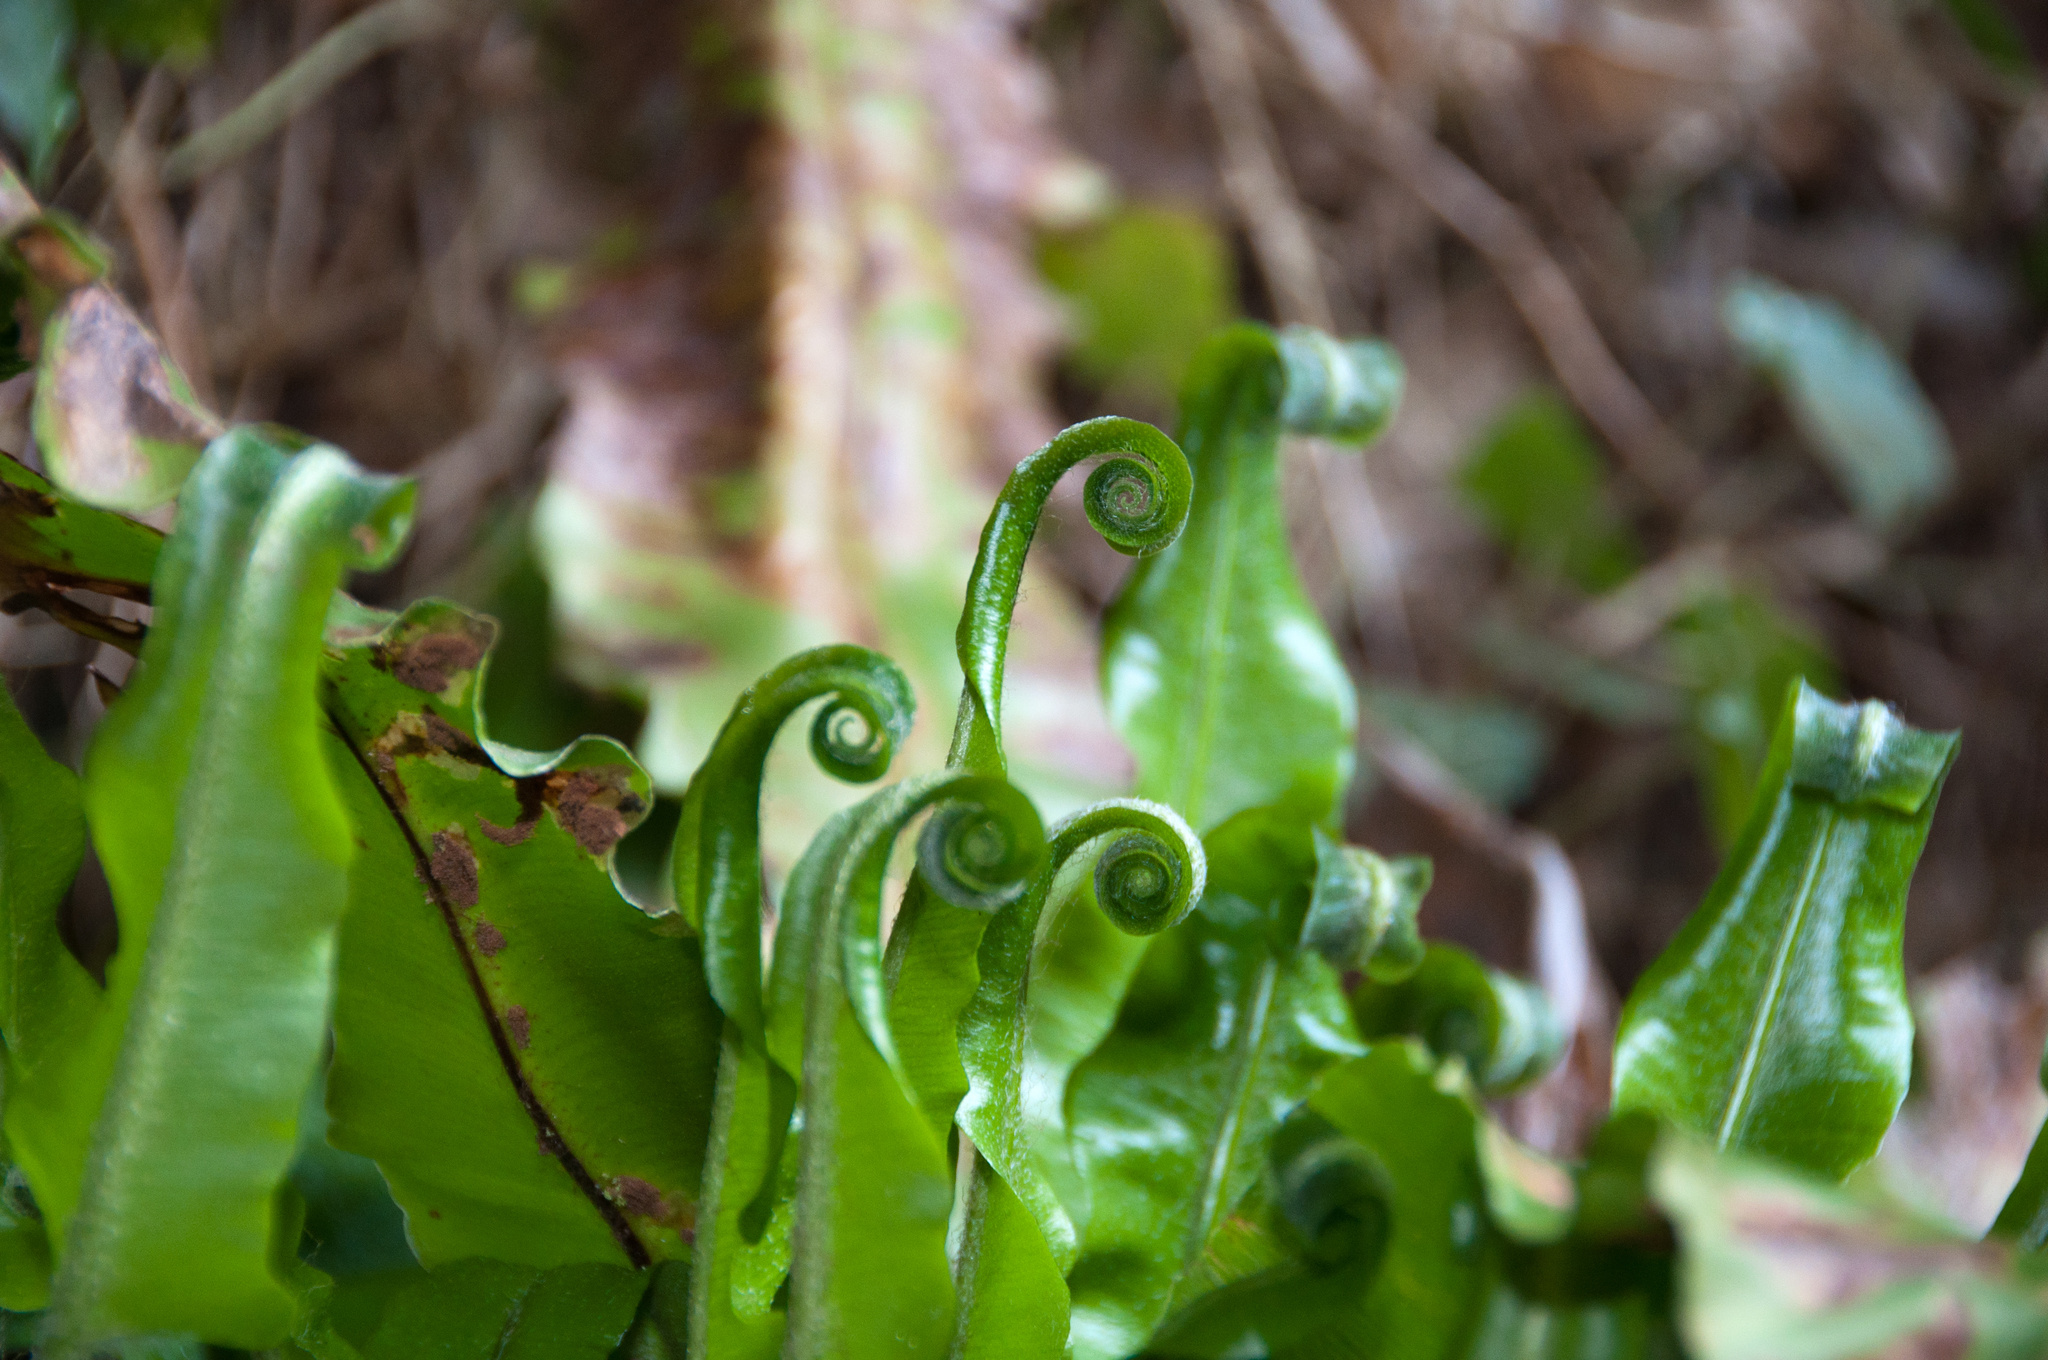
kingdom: Plantae
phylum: Tracheophyta
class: Polypodiopsida
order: Polypodiales
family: Aspleniaceae
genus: Asplenium
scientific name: Asplenium scolopendrium
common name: Hart's-tongue fern
